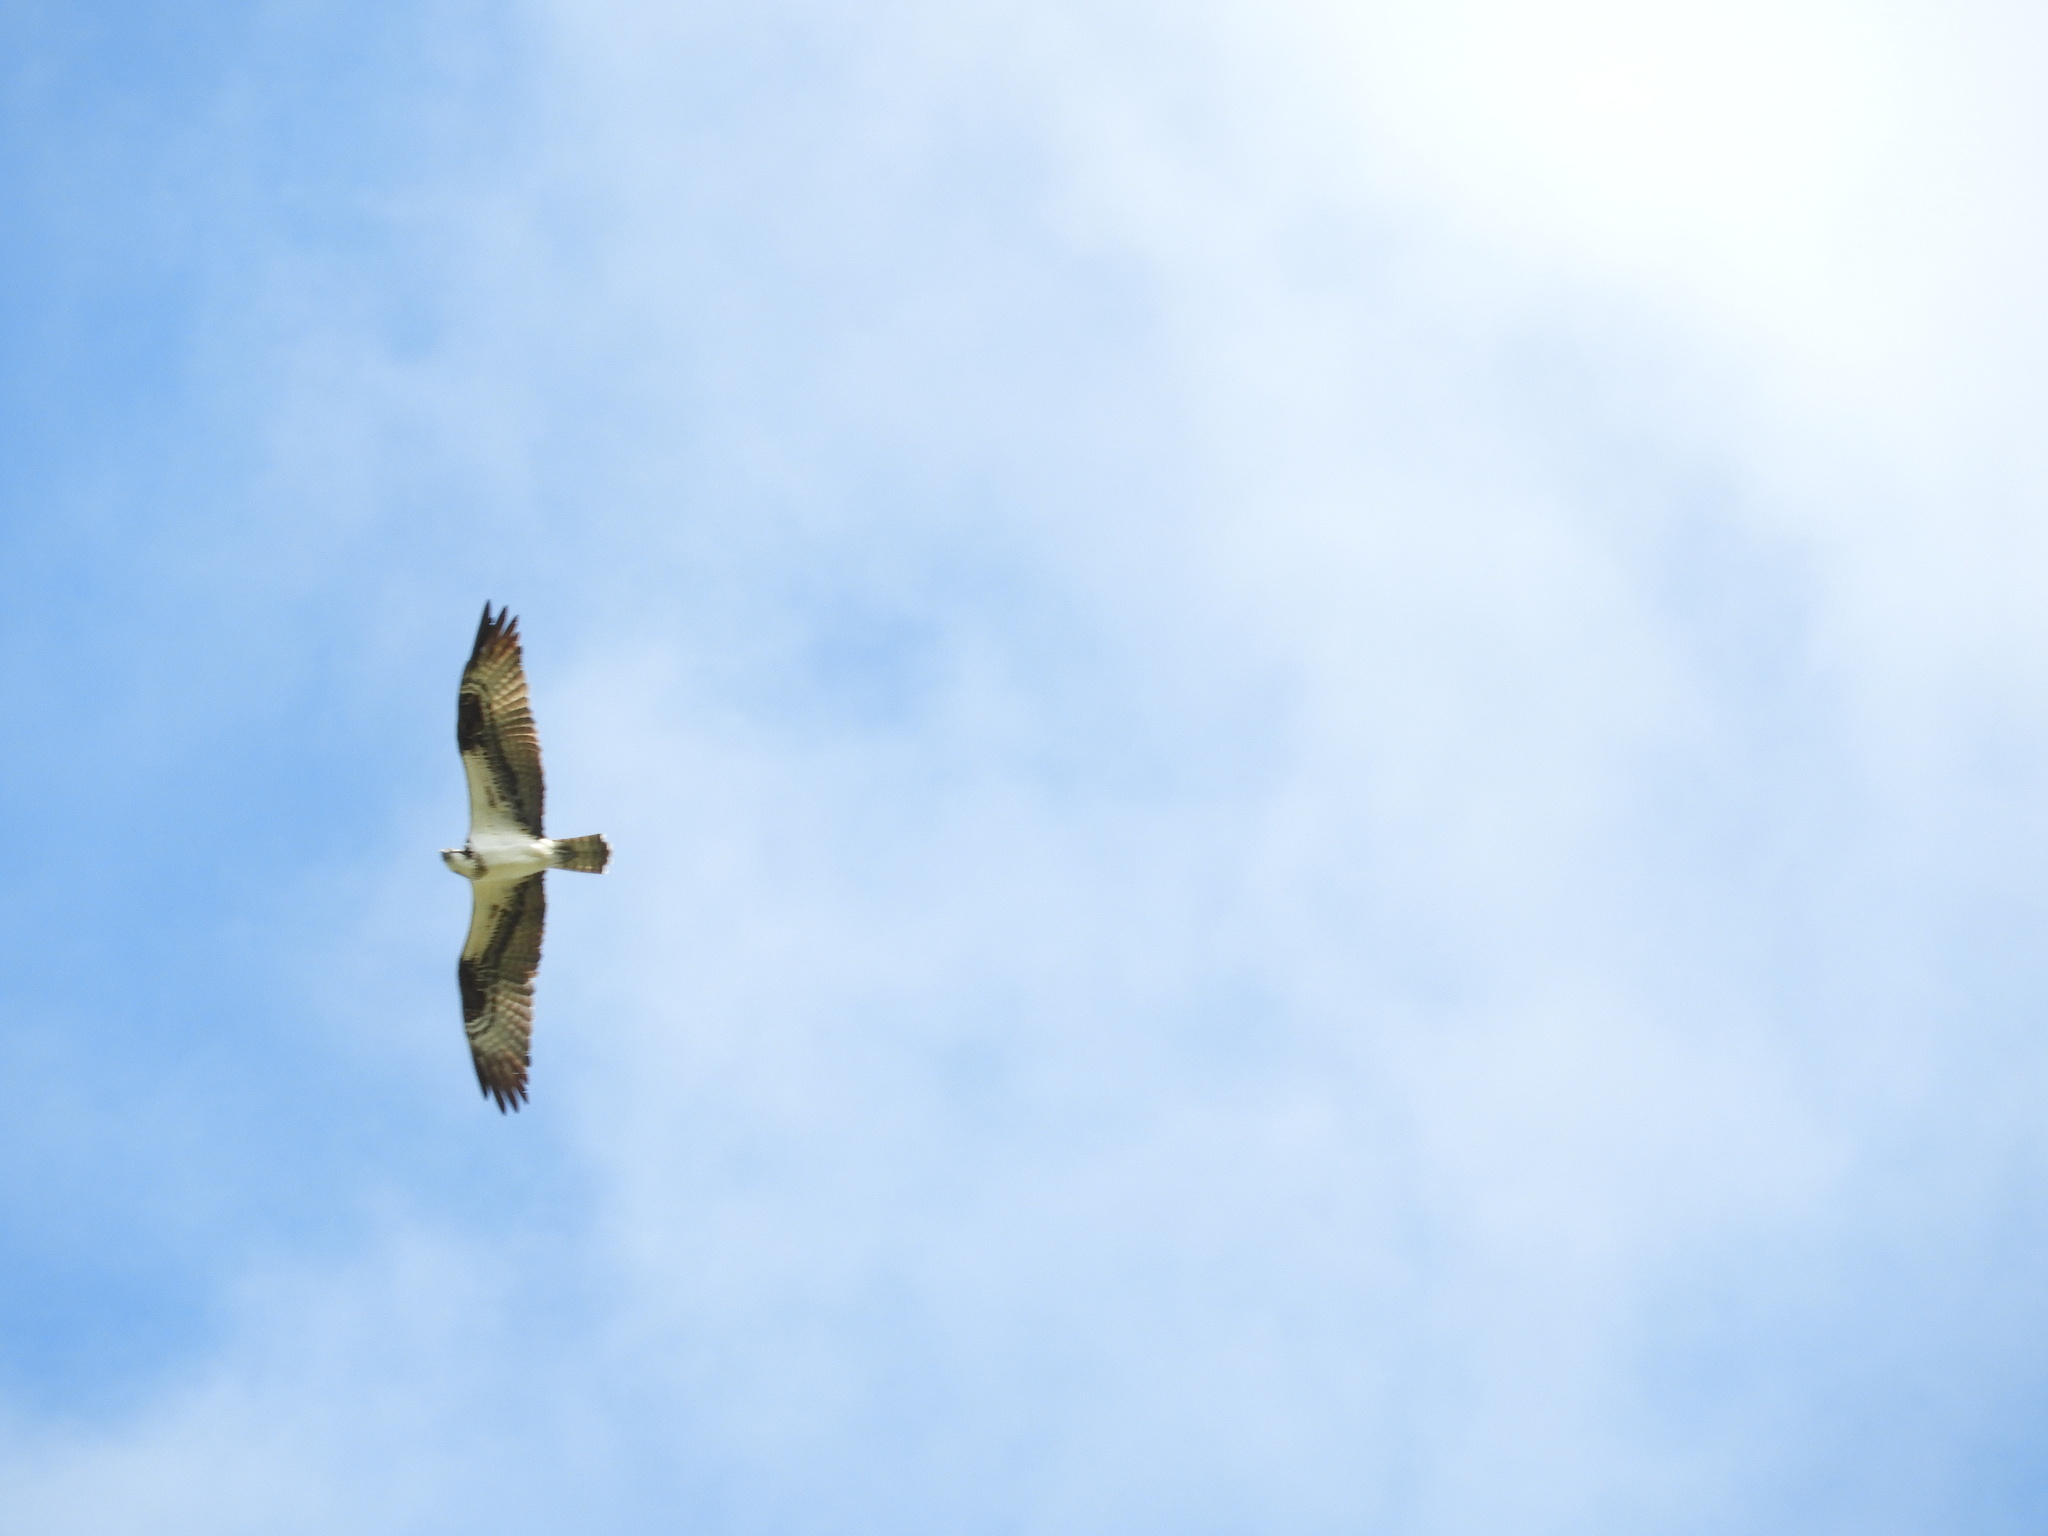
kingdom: Animalia
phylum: Chordata
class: Aves
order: Accipitriformes
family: Pandionidae
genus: Pandion
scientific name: Pandion haliaetus
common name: Osprey
